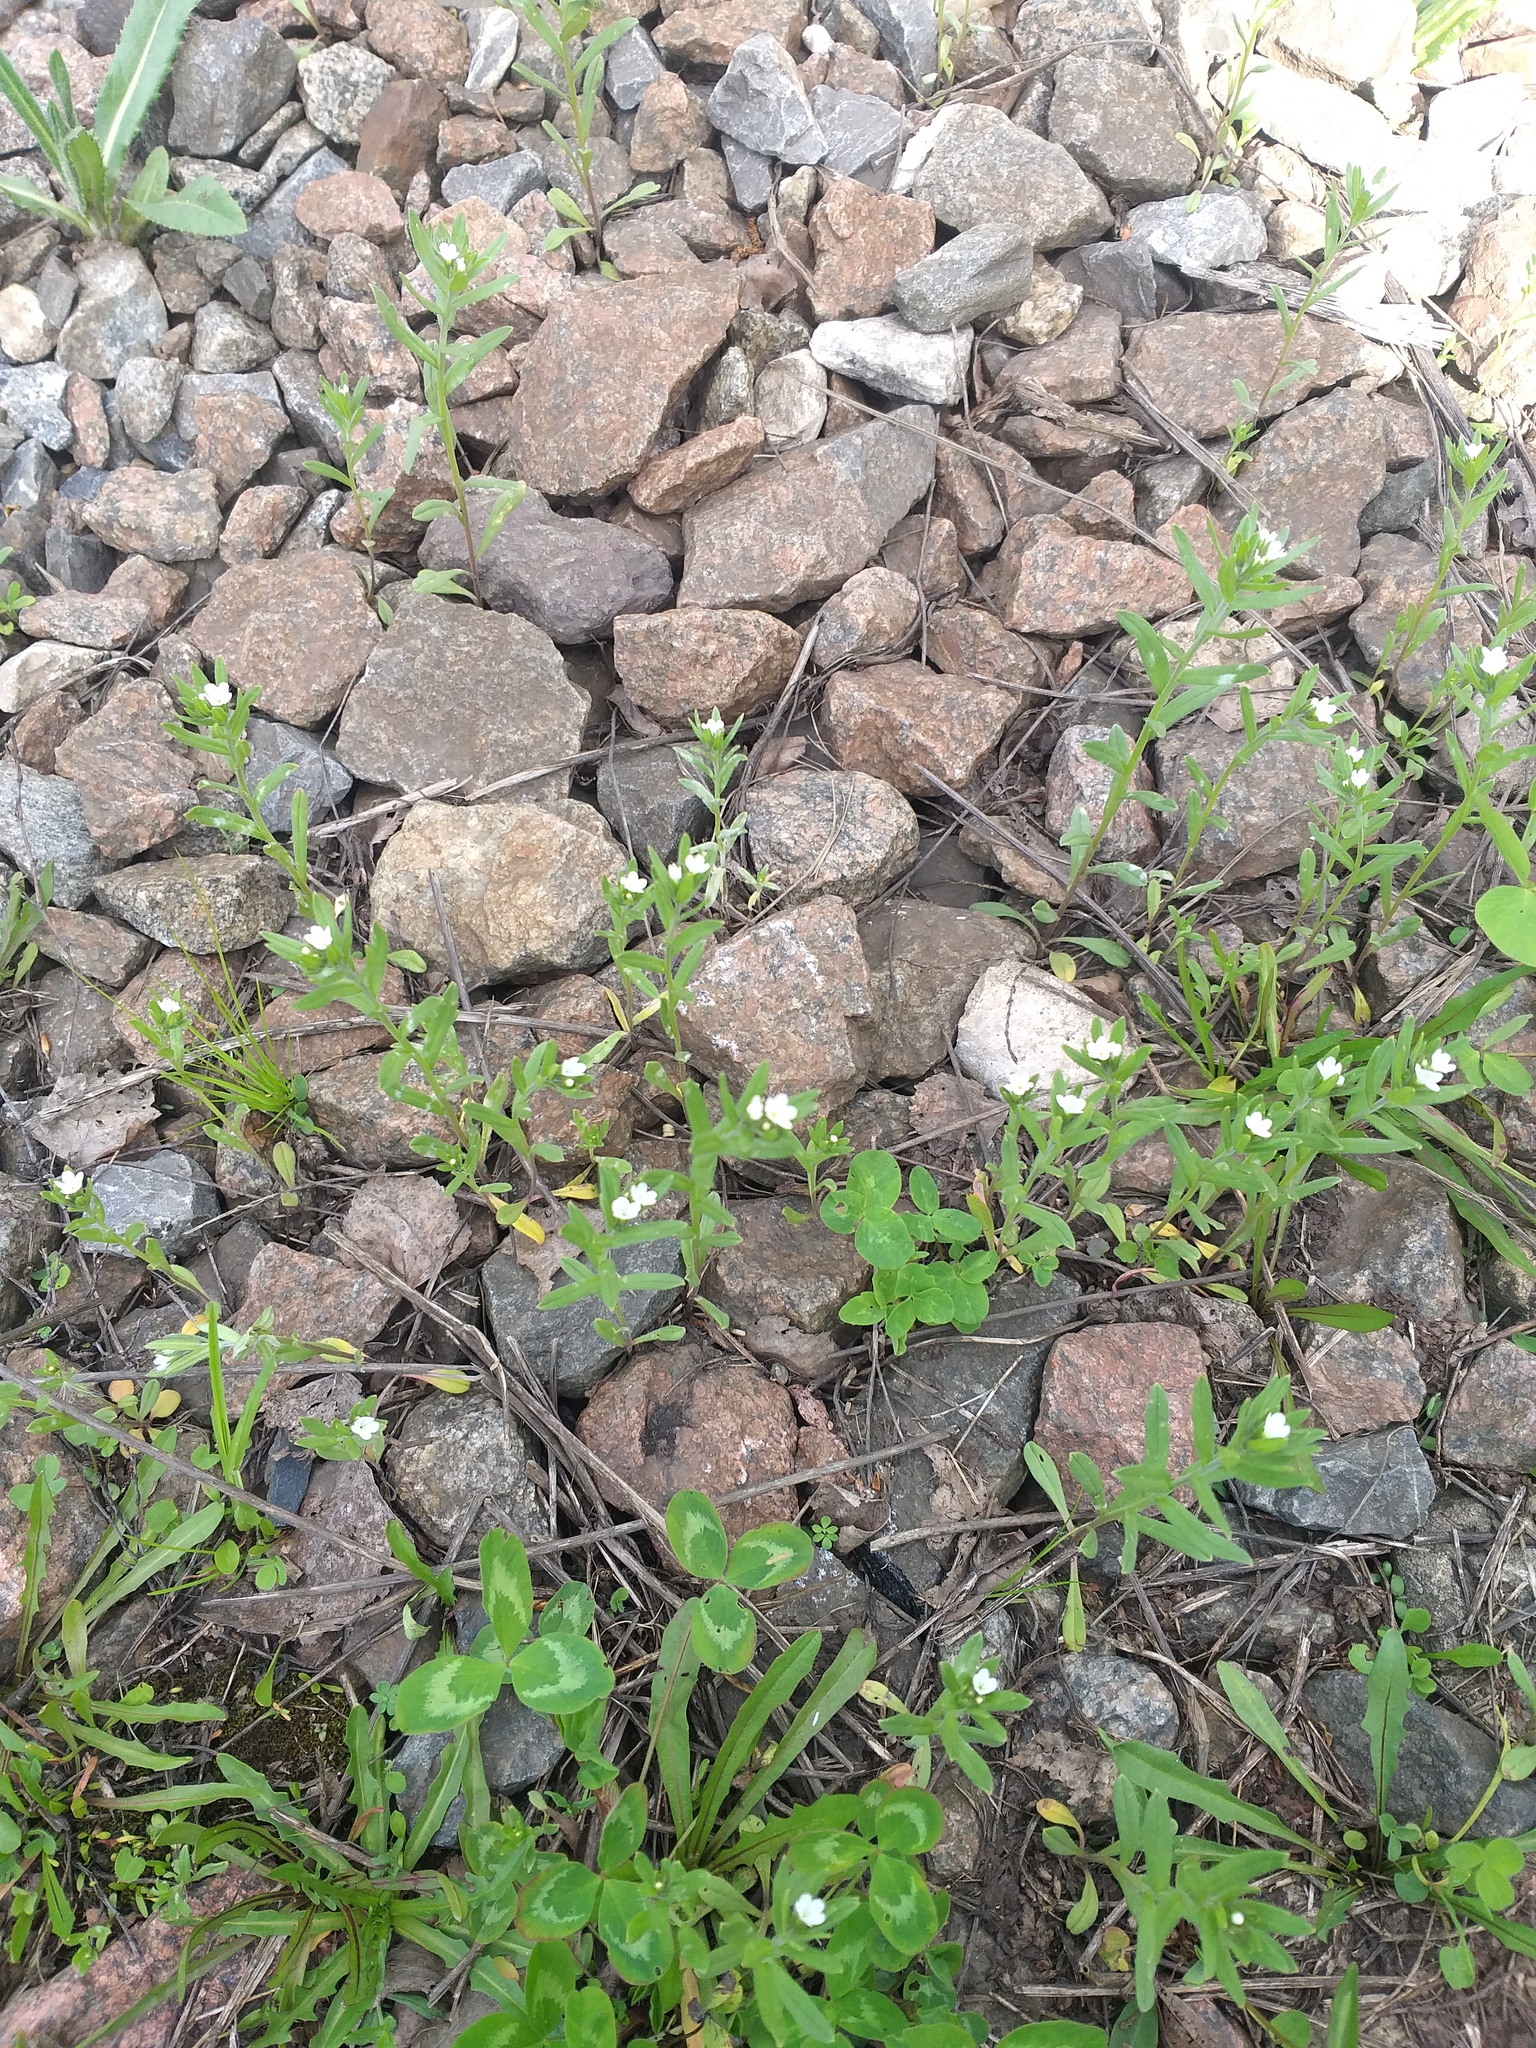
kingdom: Plantae
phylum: Tracheophyta
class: Magnoliopsida
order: Boraginales
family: Boraginaceae
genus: Buglossoides
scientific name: Buglossoides arvensis
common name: Corn gromwell
